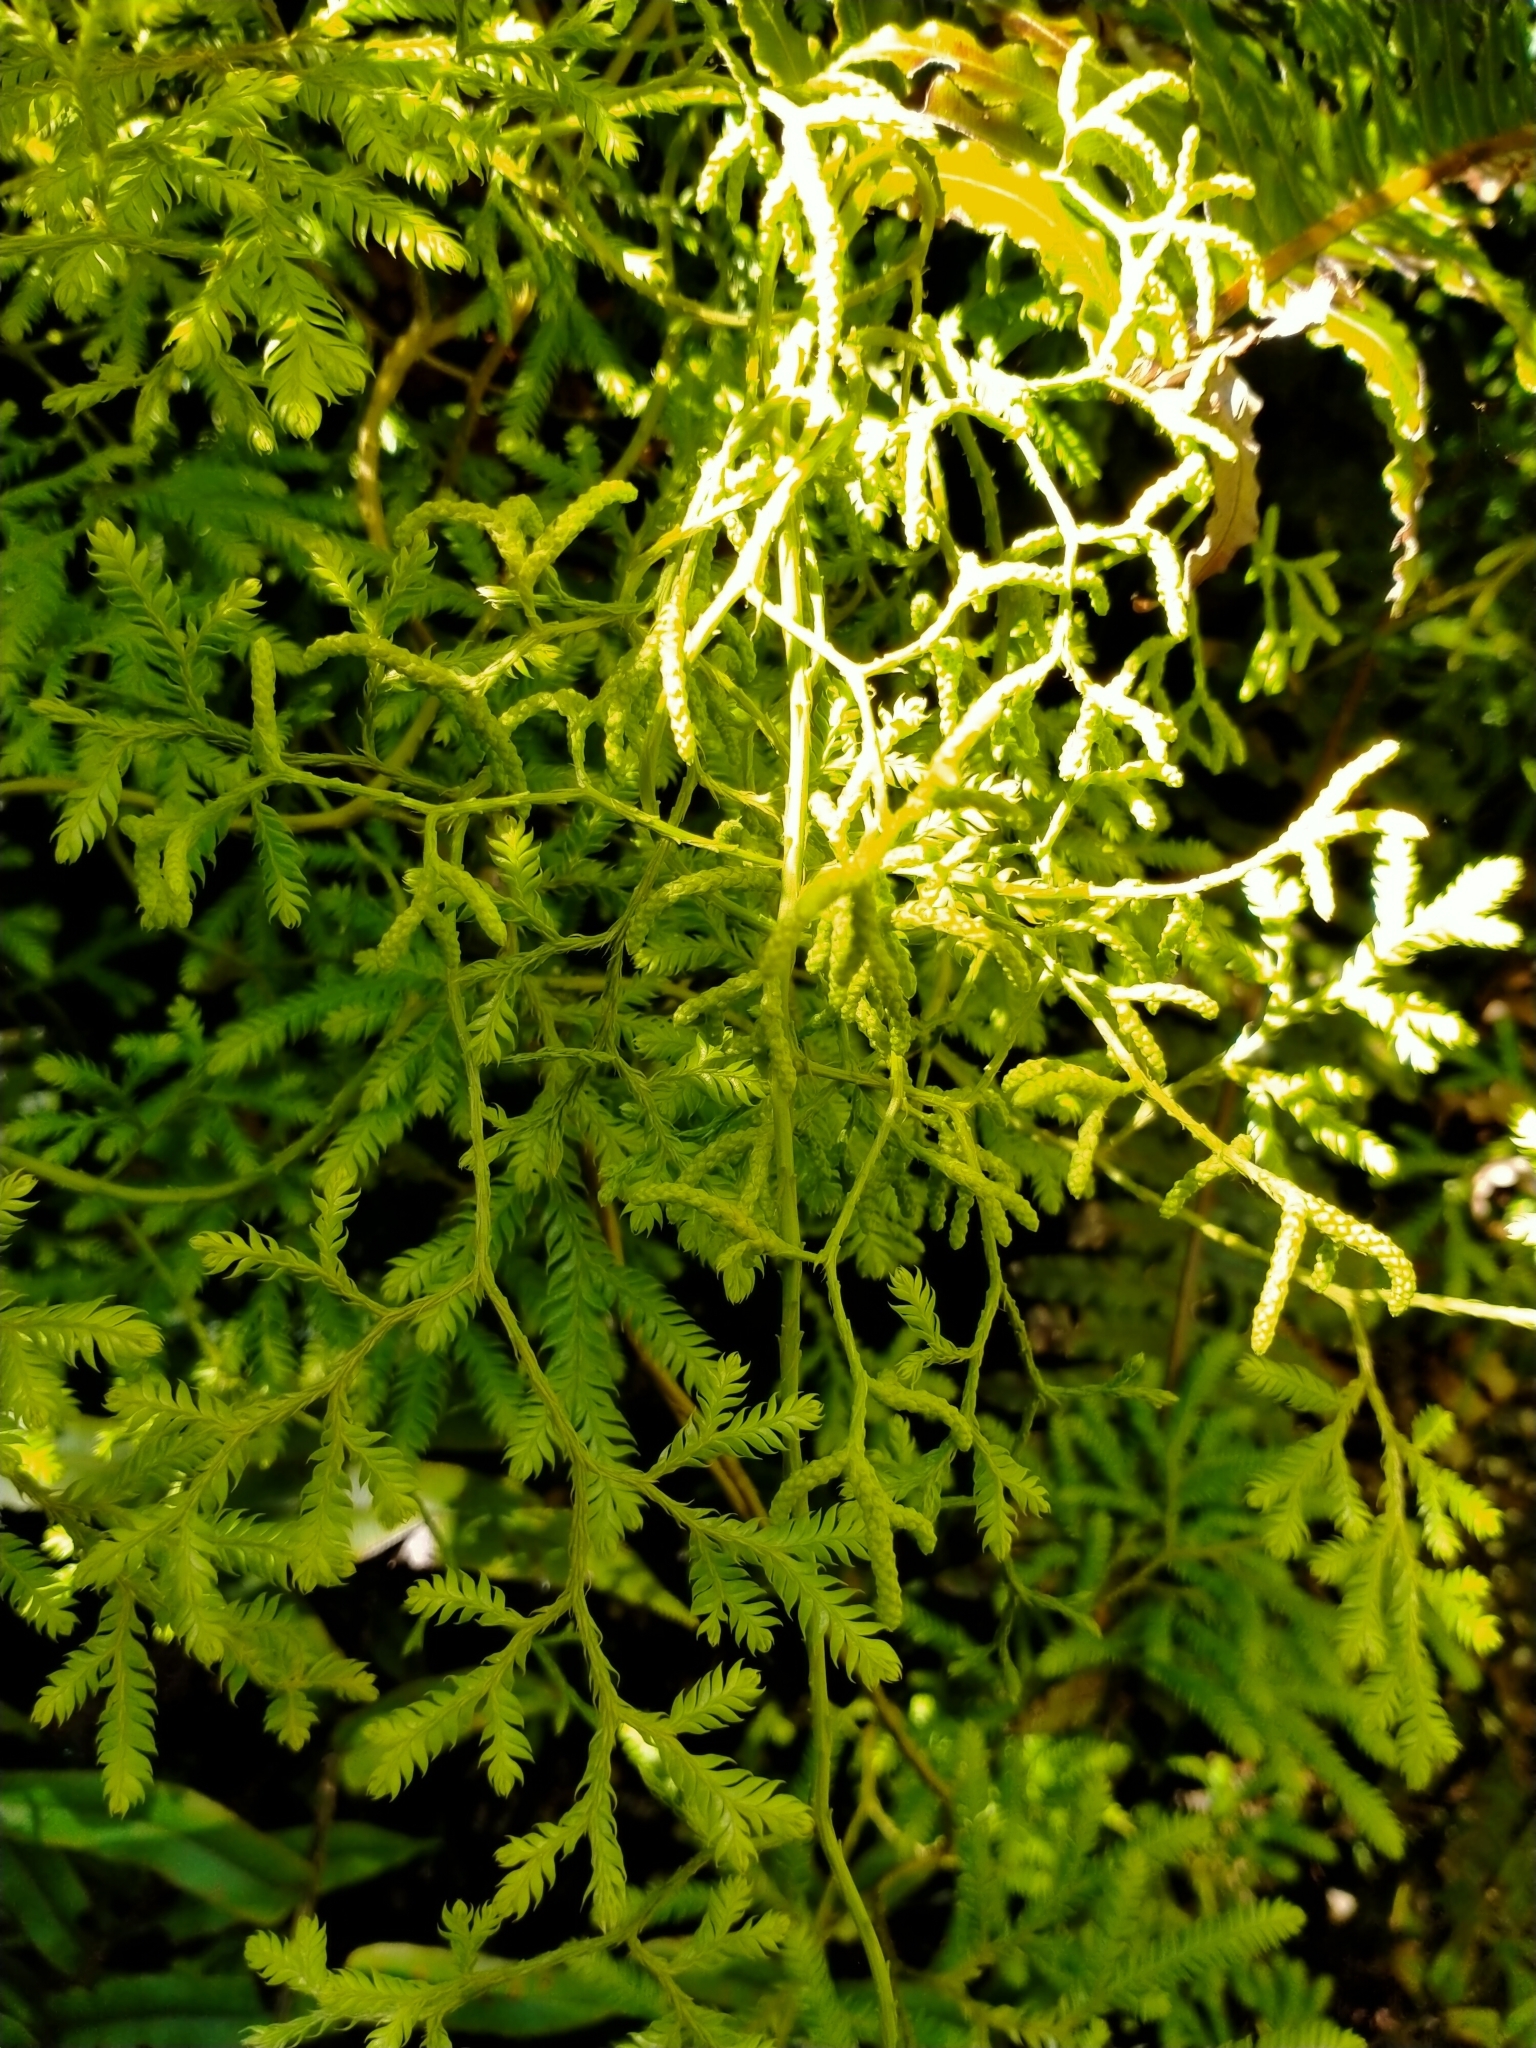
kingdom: Plantae
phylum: Tracheophyta
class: Lycopodiopsida
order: Lycopodiales
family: Lycopodiaceae
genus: Lycopodium
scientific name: Lycopodium volubile
